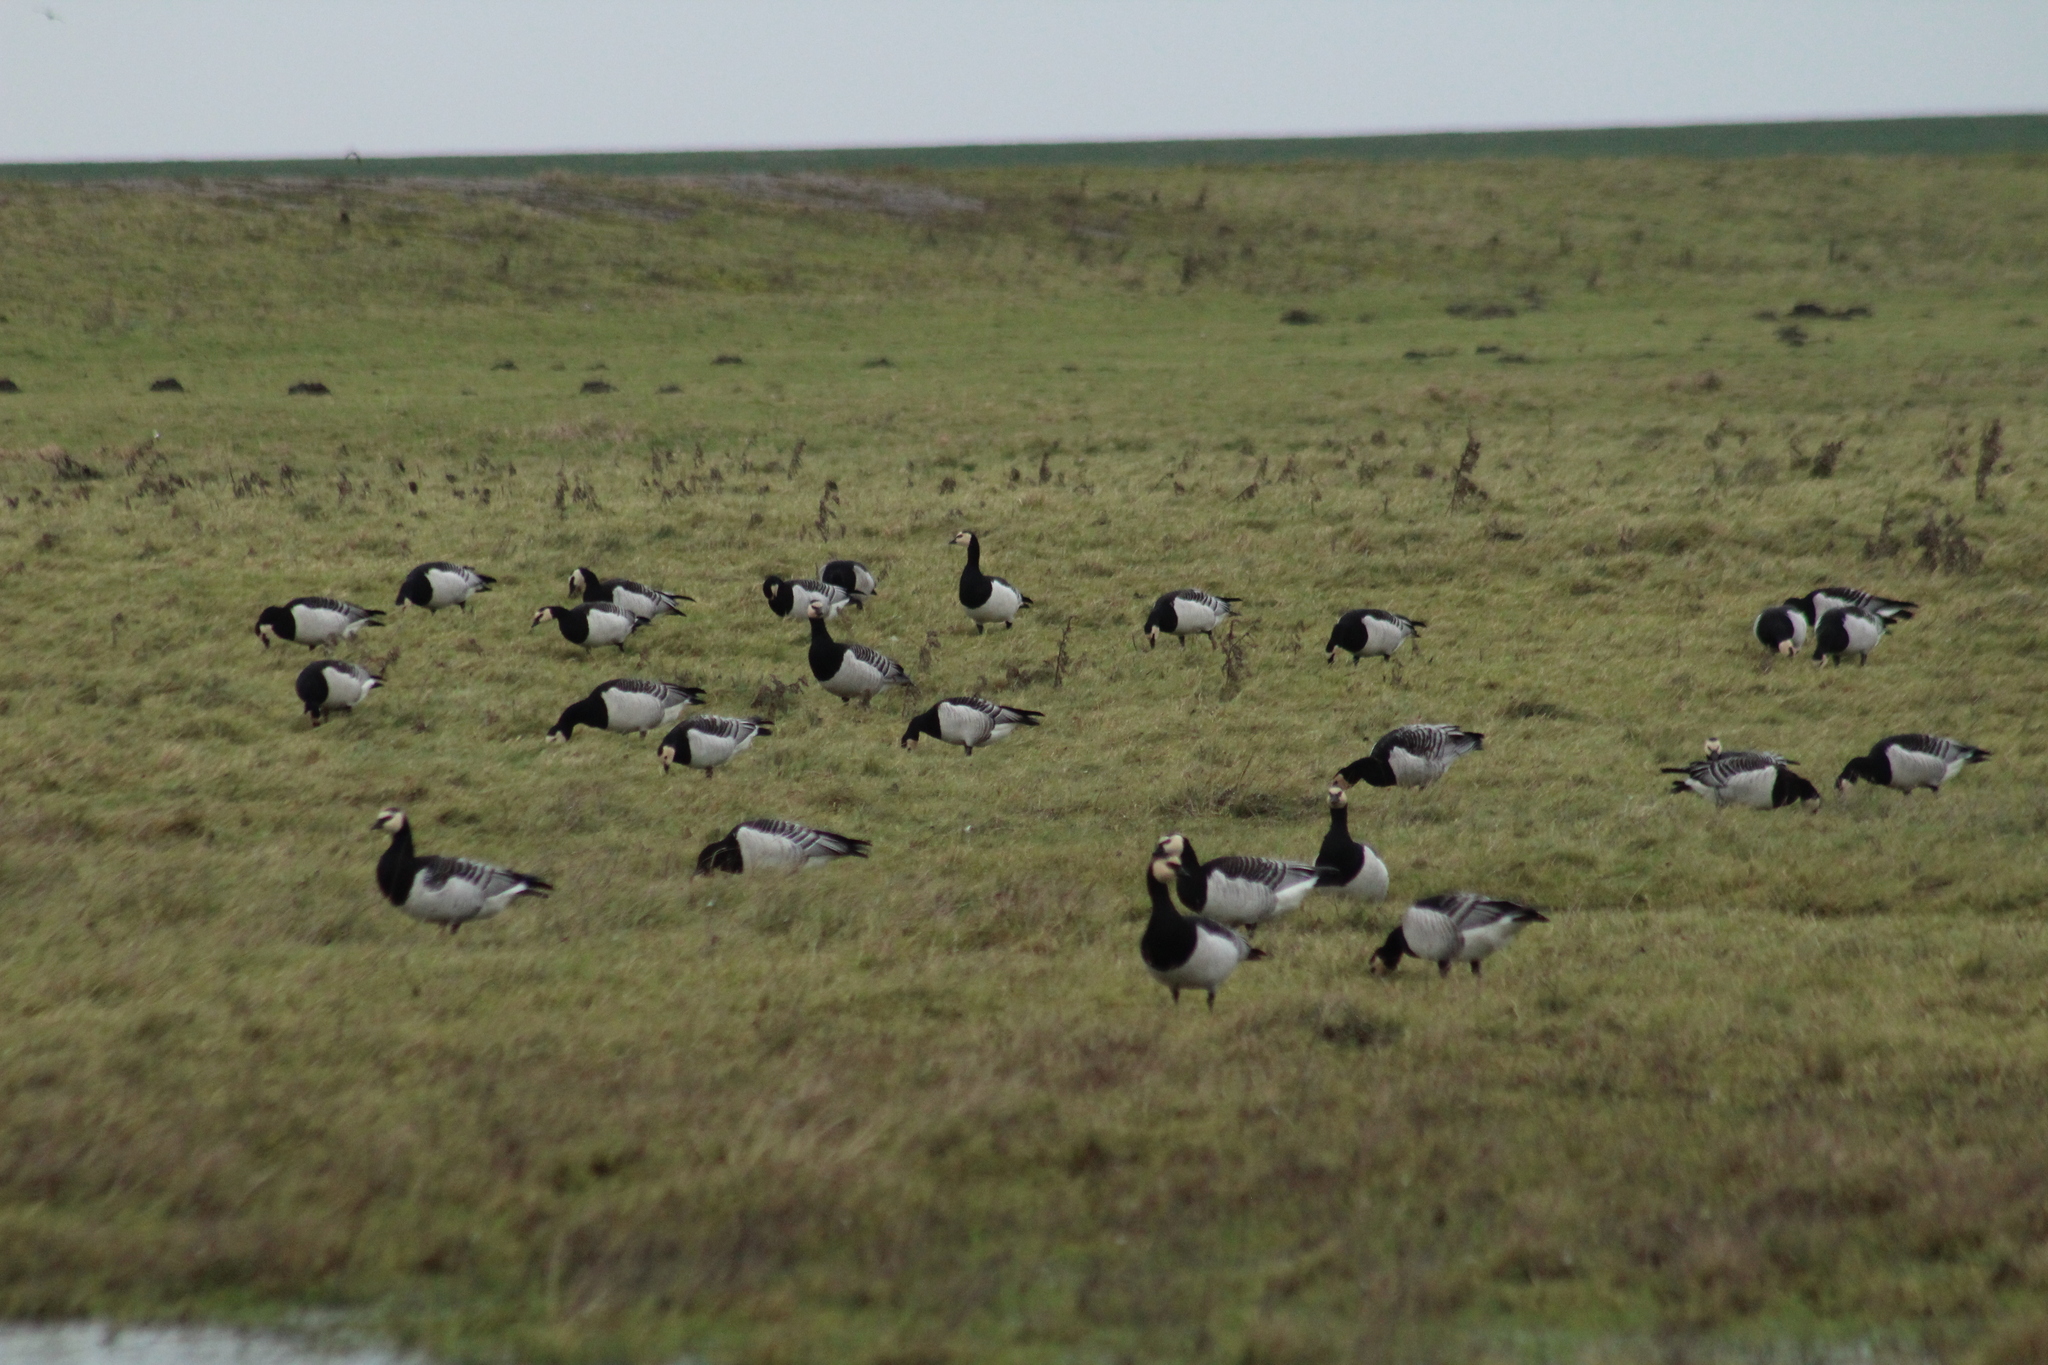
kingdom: Animalia
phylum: Chordata
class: Aves
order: Anseriformes
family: Anatidae
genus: Branta
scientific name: Branta leucopsis
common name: Barnacle goose
